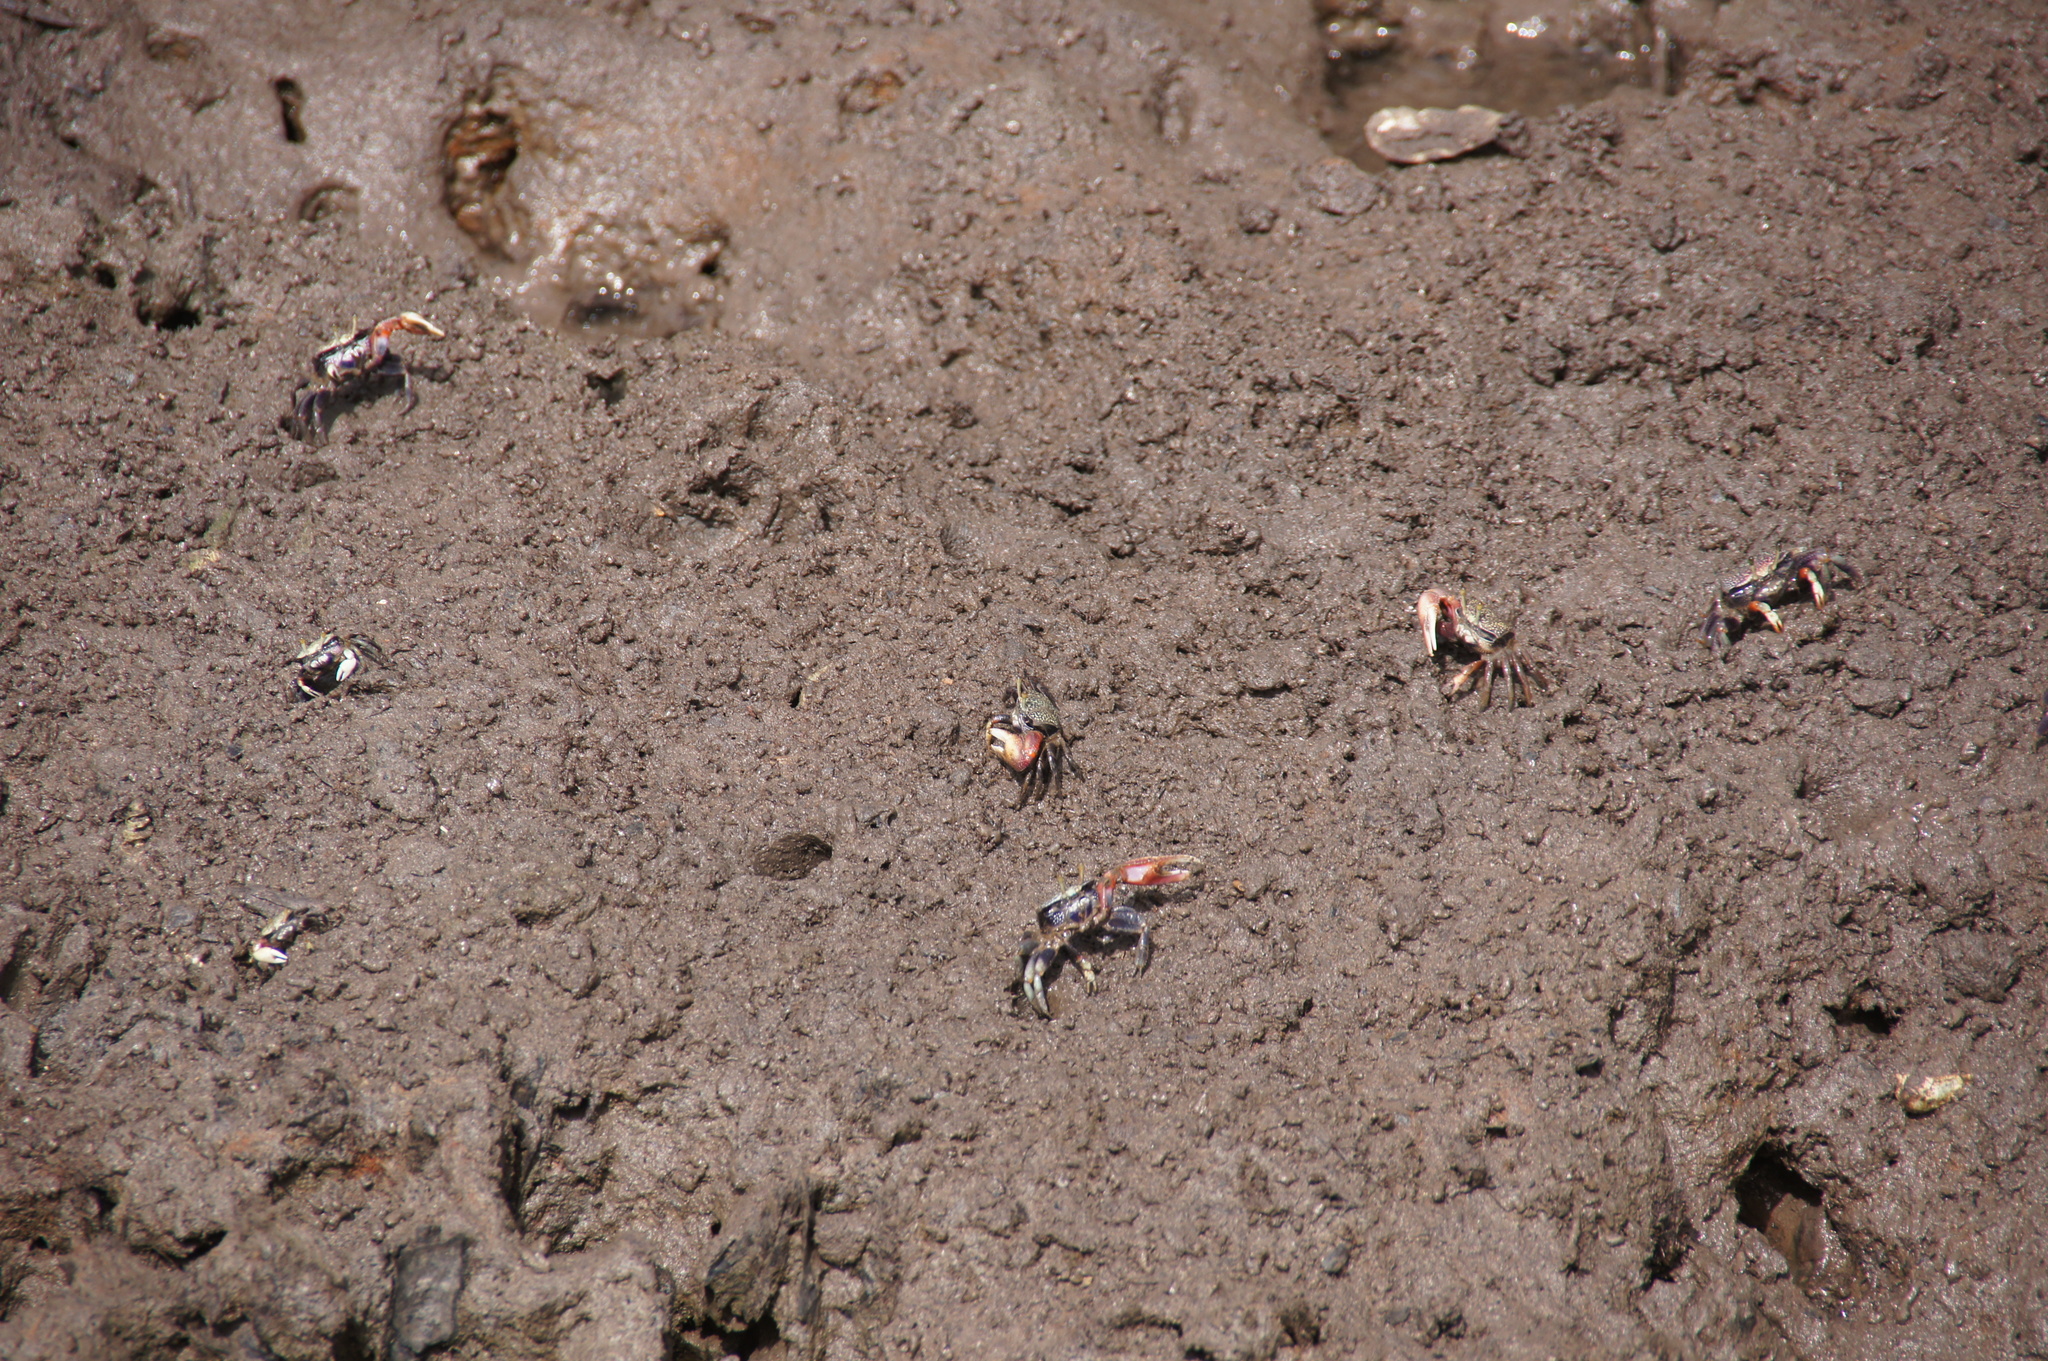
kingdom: Animalia
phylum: Arthropoda
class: Malacostraca
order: Decapoda
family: Ocypodidae
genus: Afruca
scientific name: Afruca tangeri
